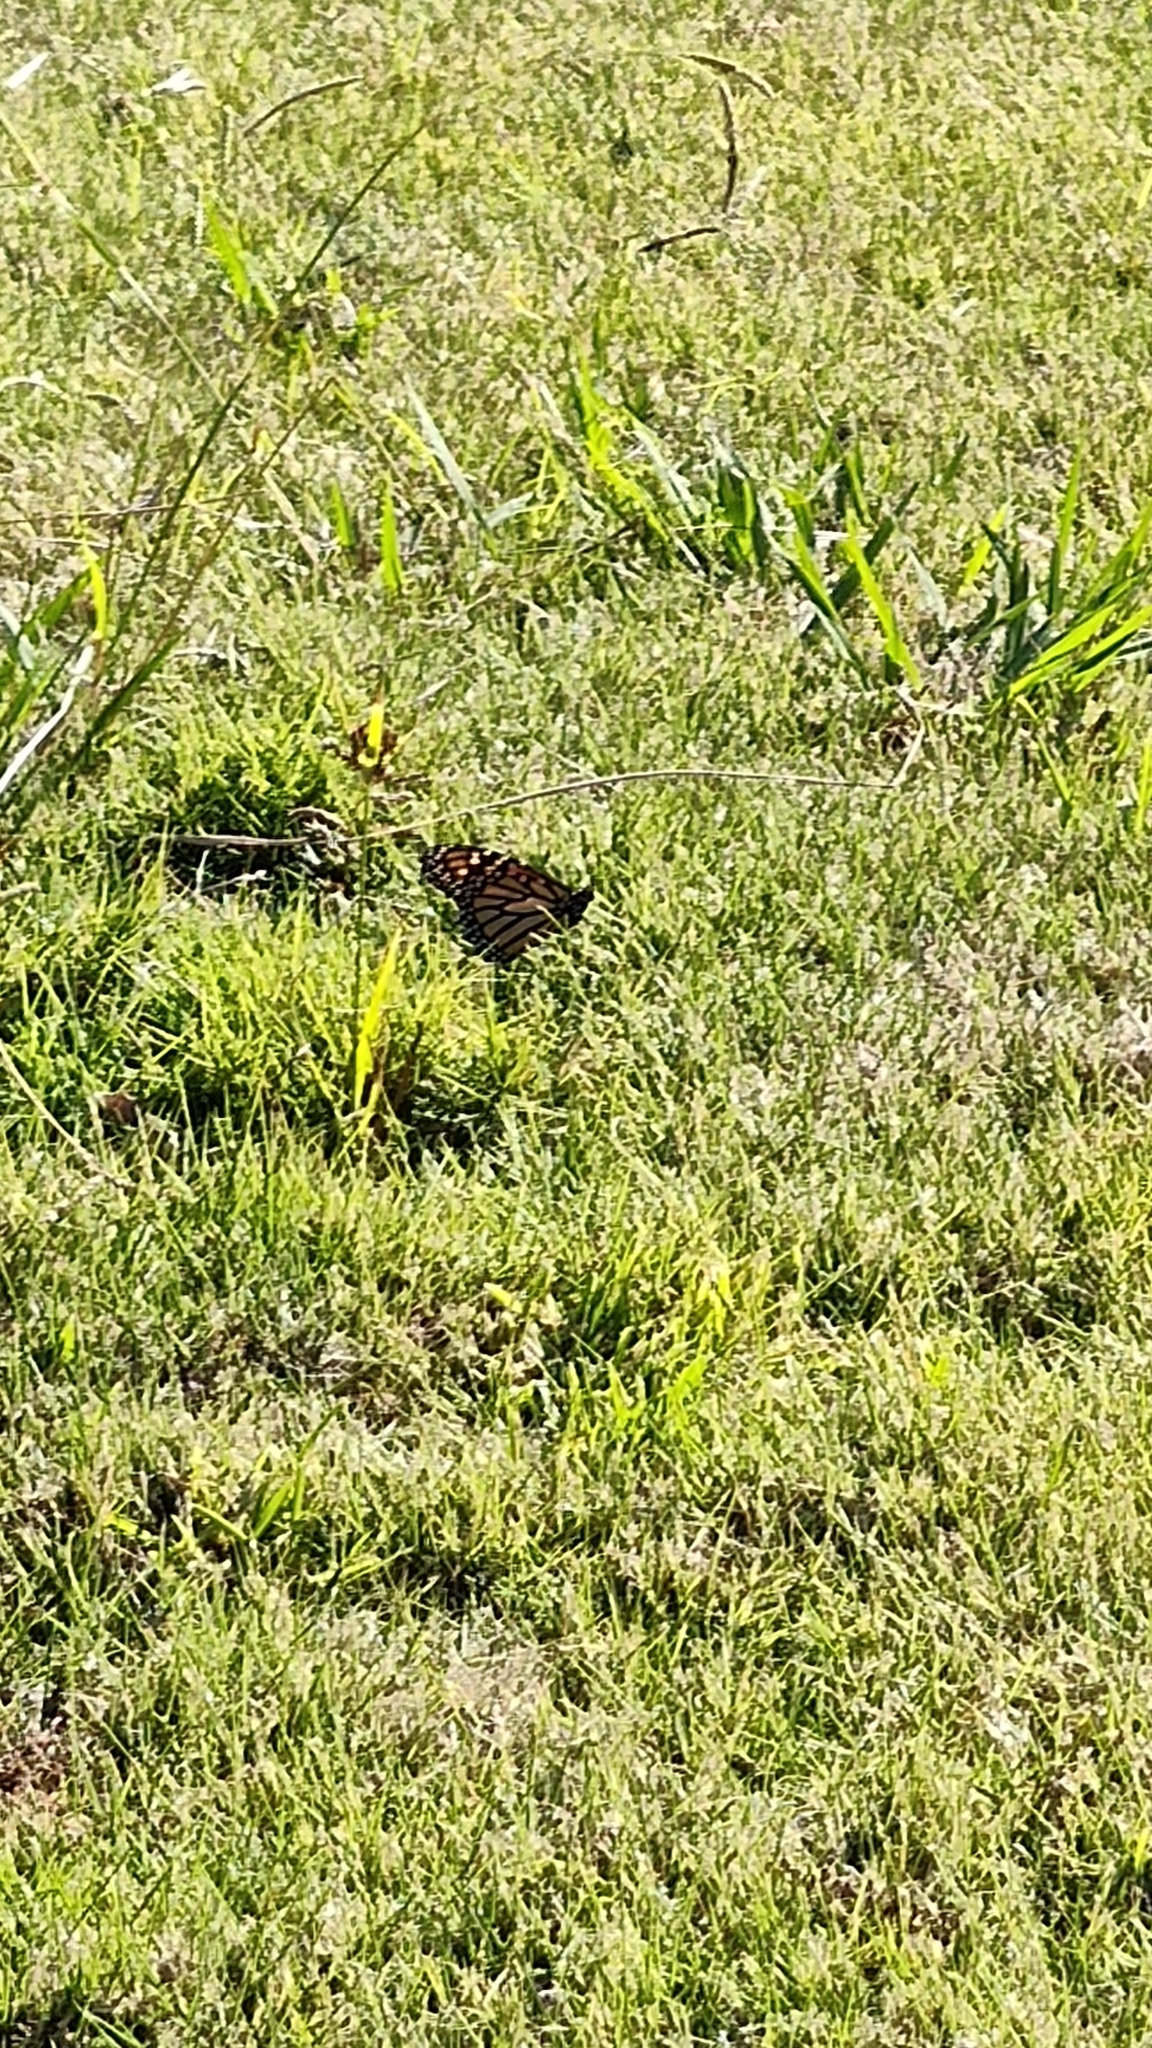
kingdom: Animalia
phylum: Arthropoda
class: Insecta
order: Lepidoptera
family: Nymphalidae
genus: Danaus
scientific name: Danaus plexippus
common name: Monarch
